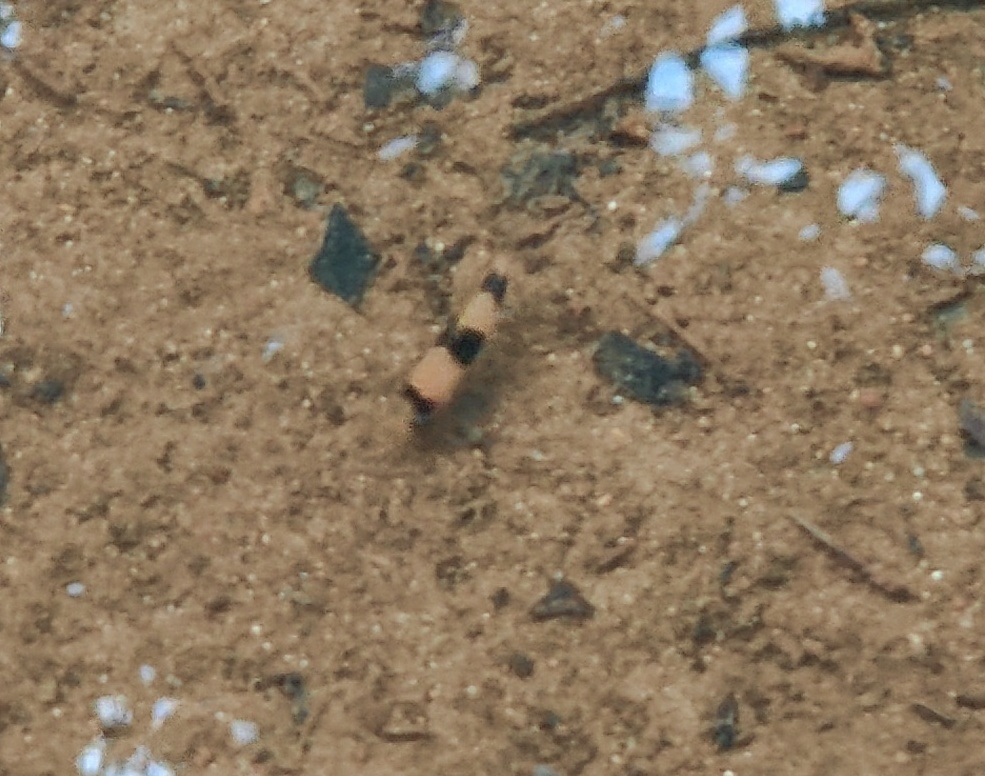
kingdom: Animalia
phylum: Chordata
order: Cypriniformes
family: Cyprinidae
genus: Haludaria
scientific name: Haludaria fasciata
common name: Melon barb
